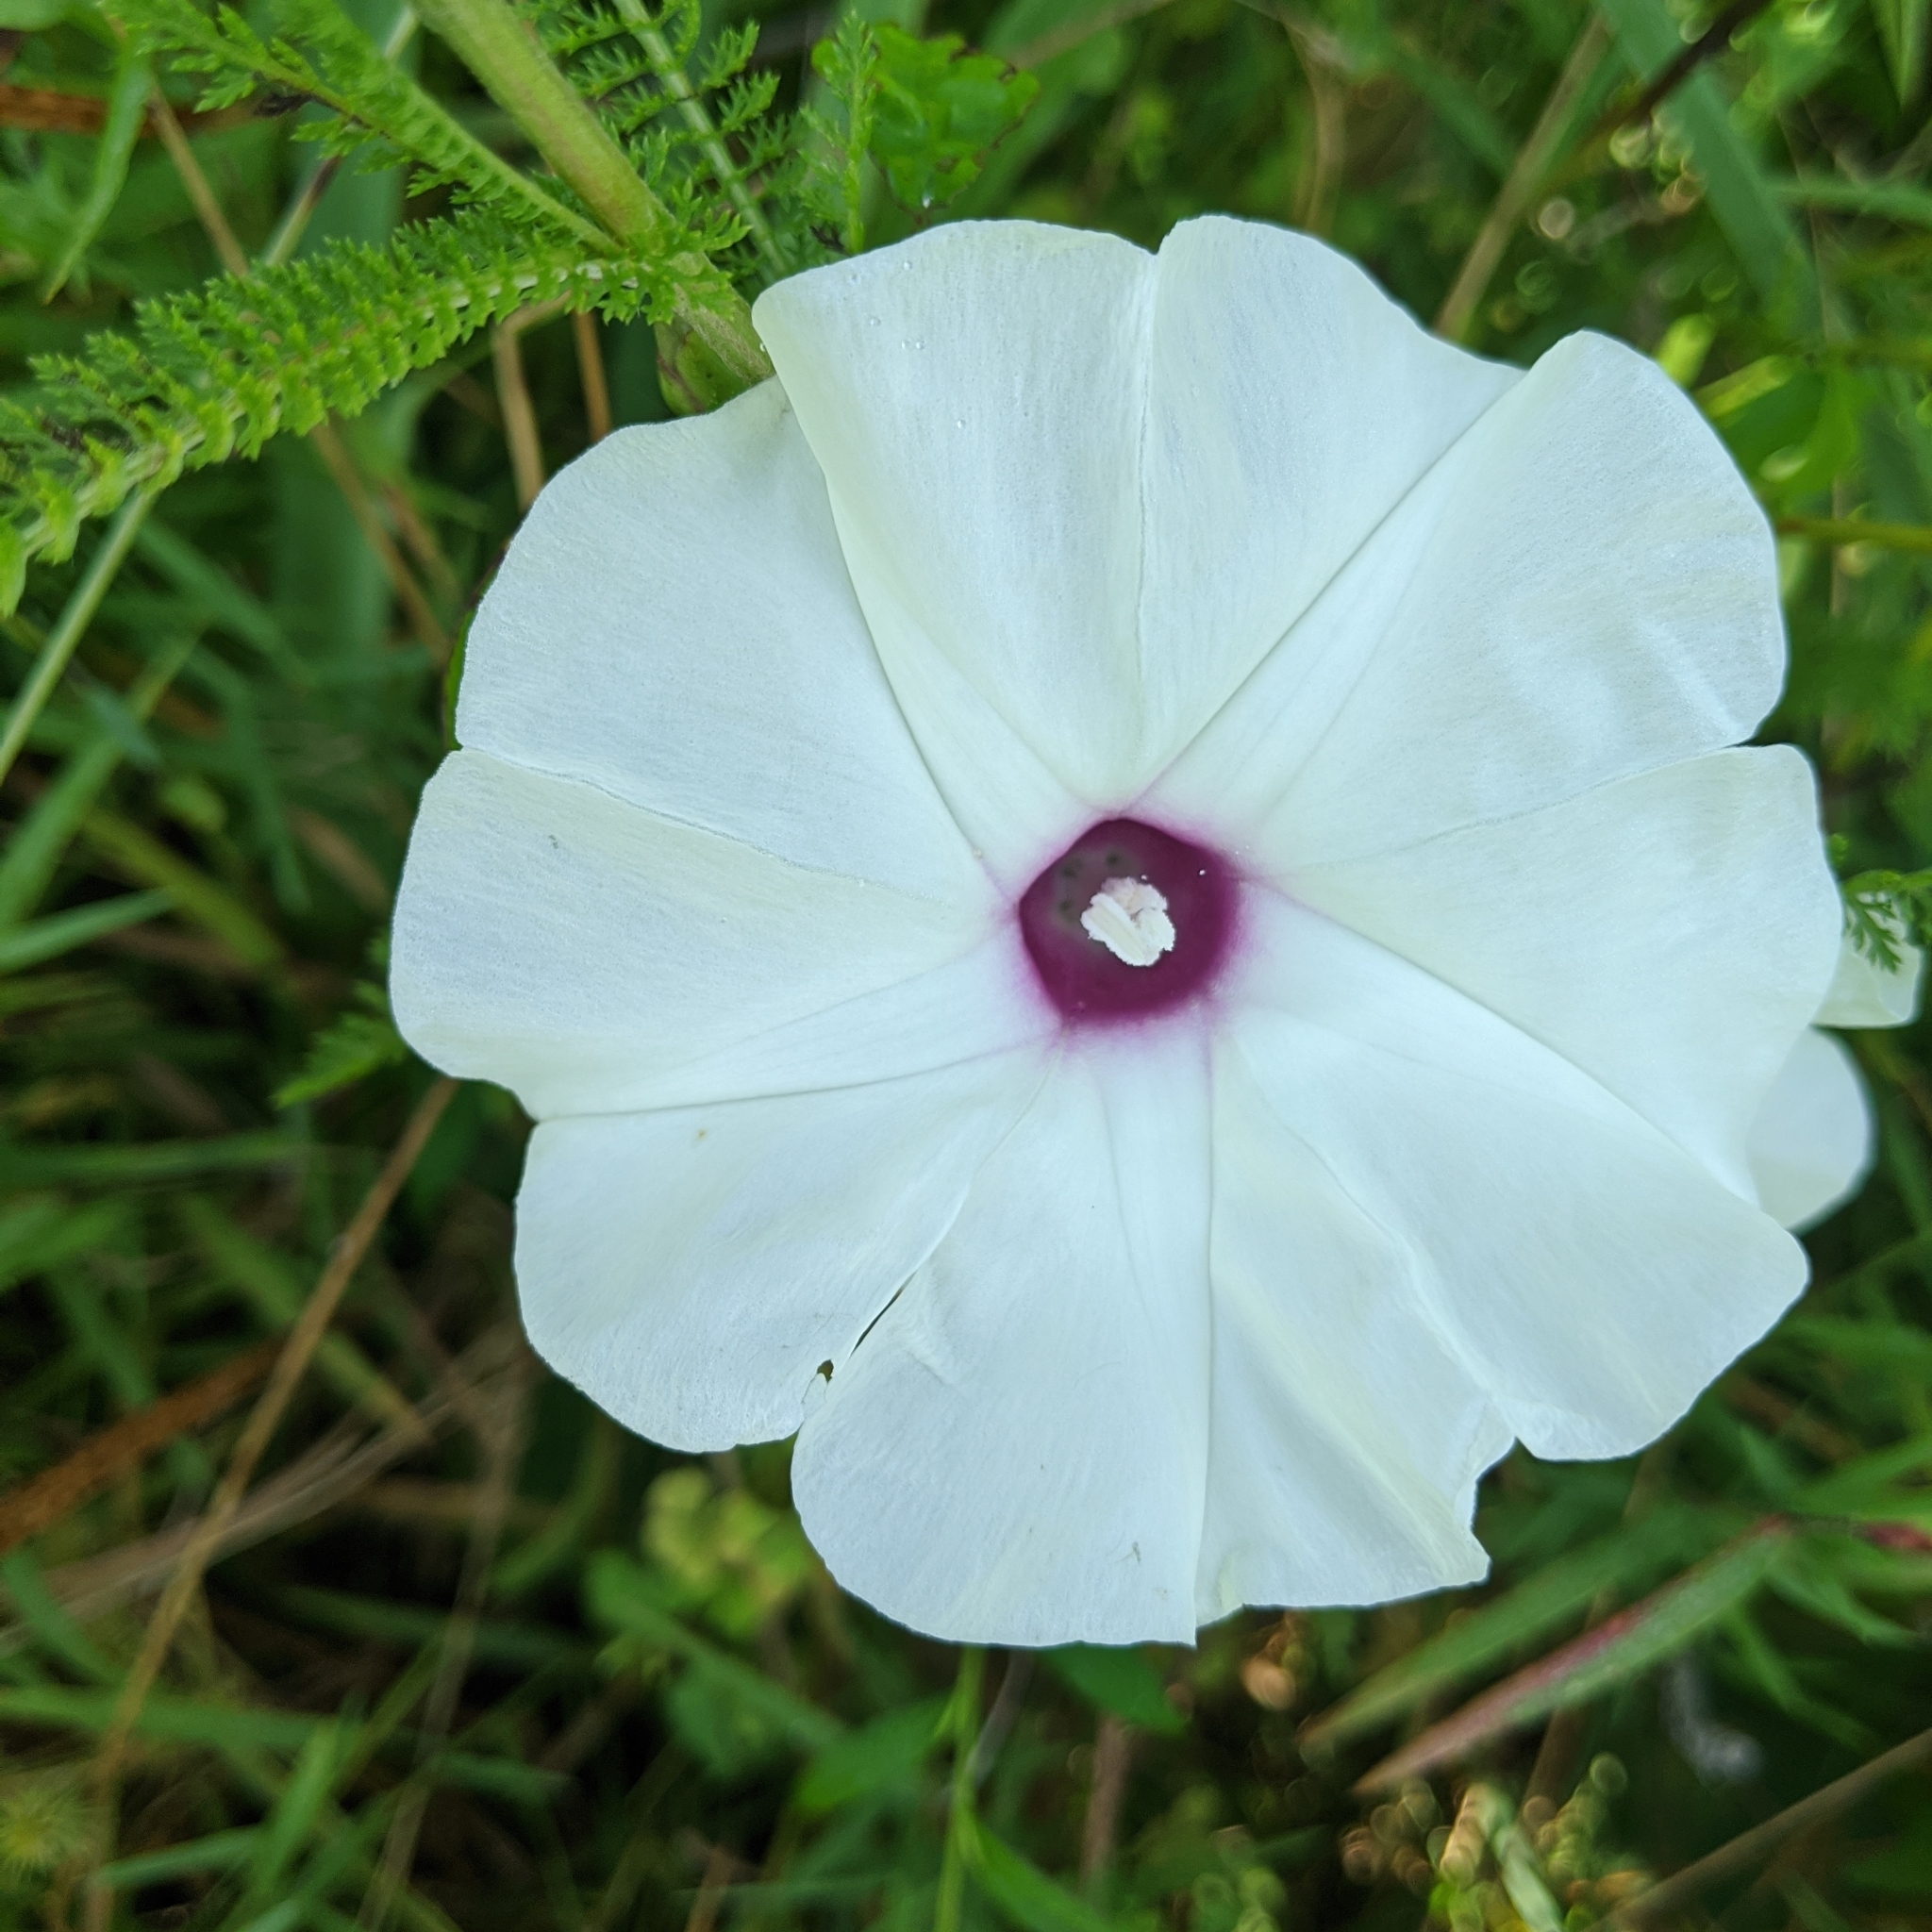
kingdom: Plantae
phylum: Tracheophyta
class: Magnoliopsida
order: Solanales
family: Convolvulaceae
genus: Ipomoea
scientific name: Ipomoea pandurata
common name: Man-of-the-earth
